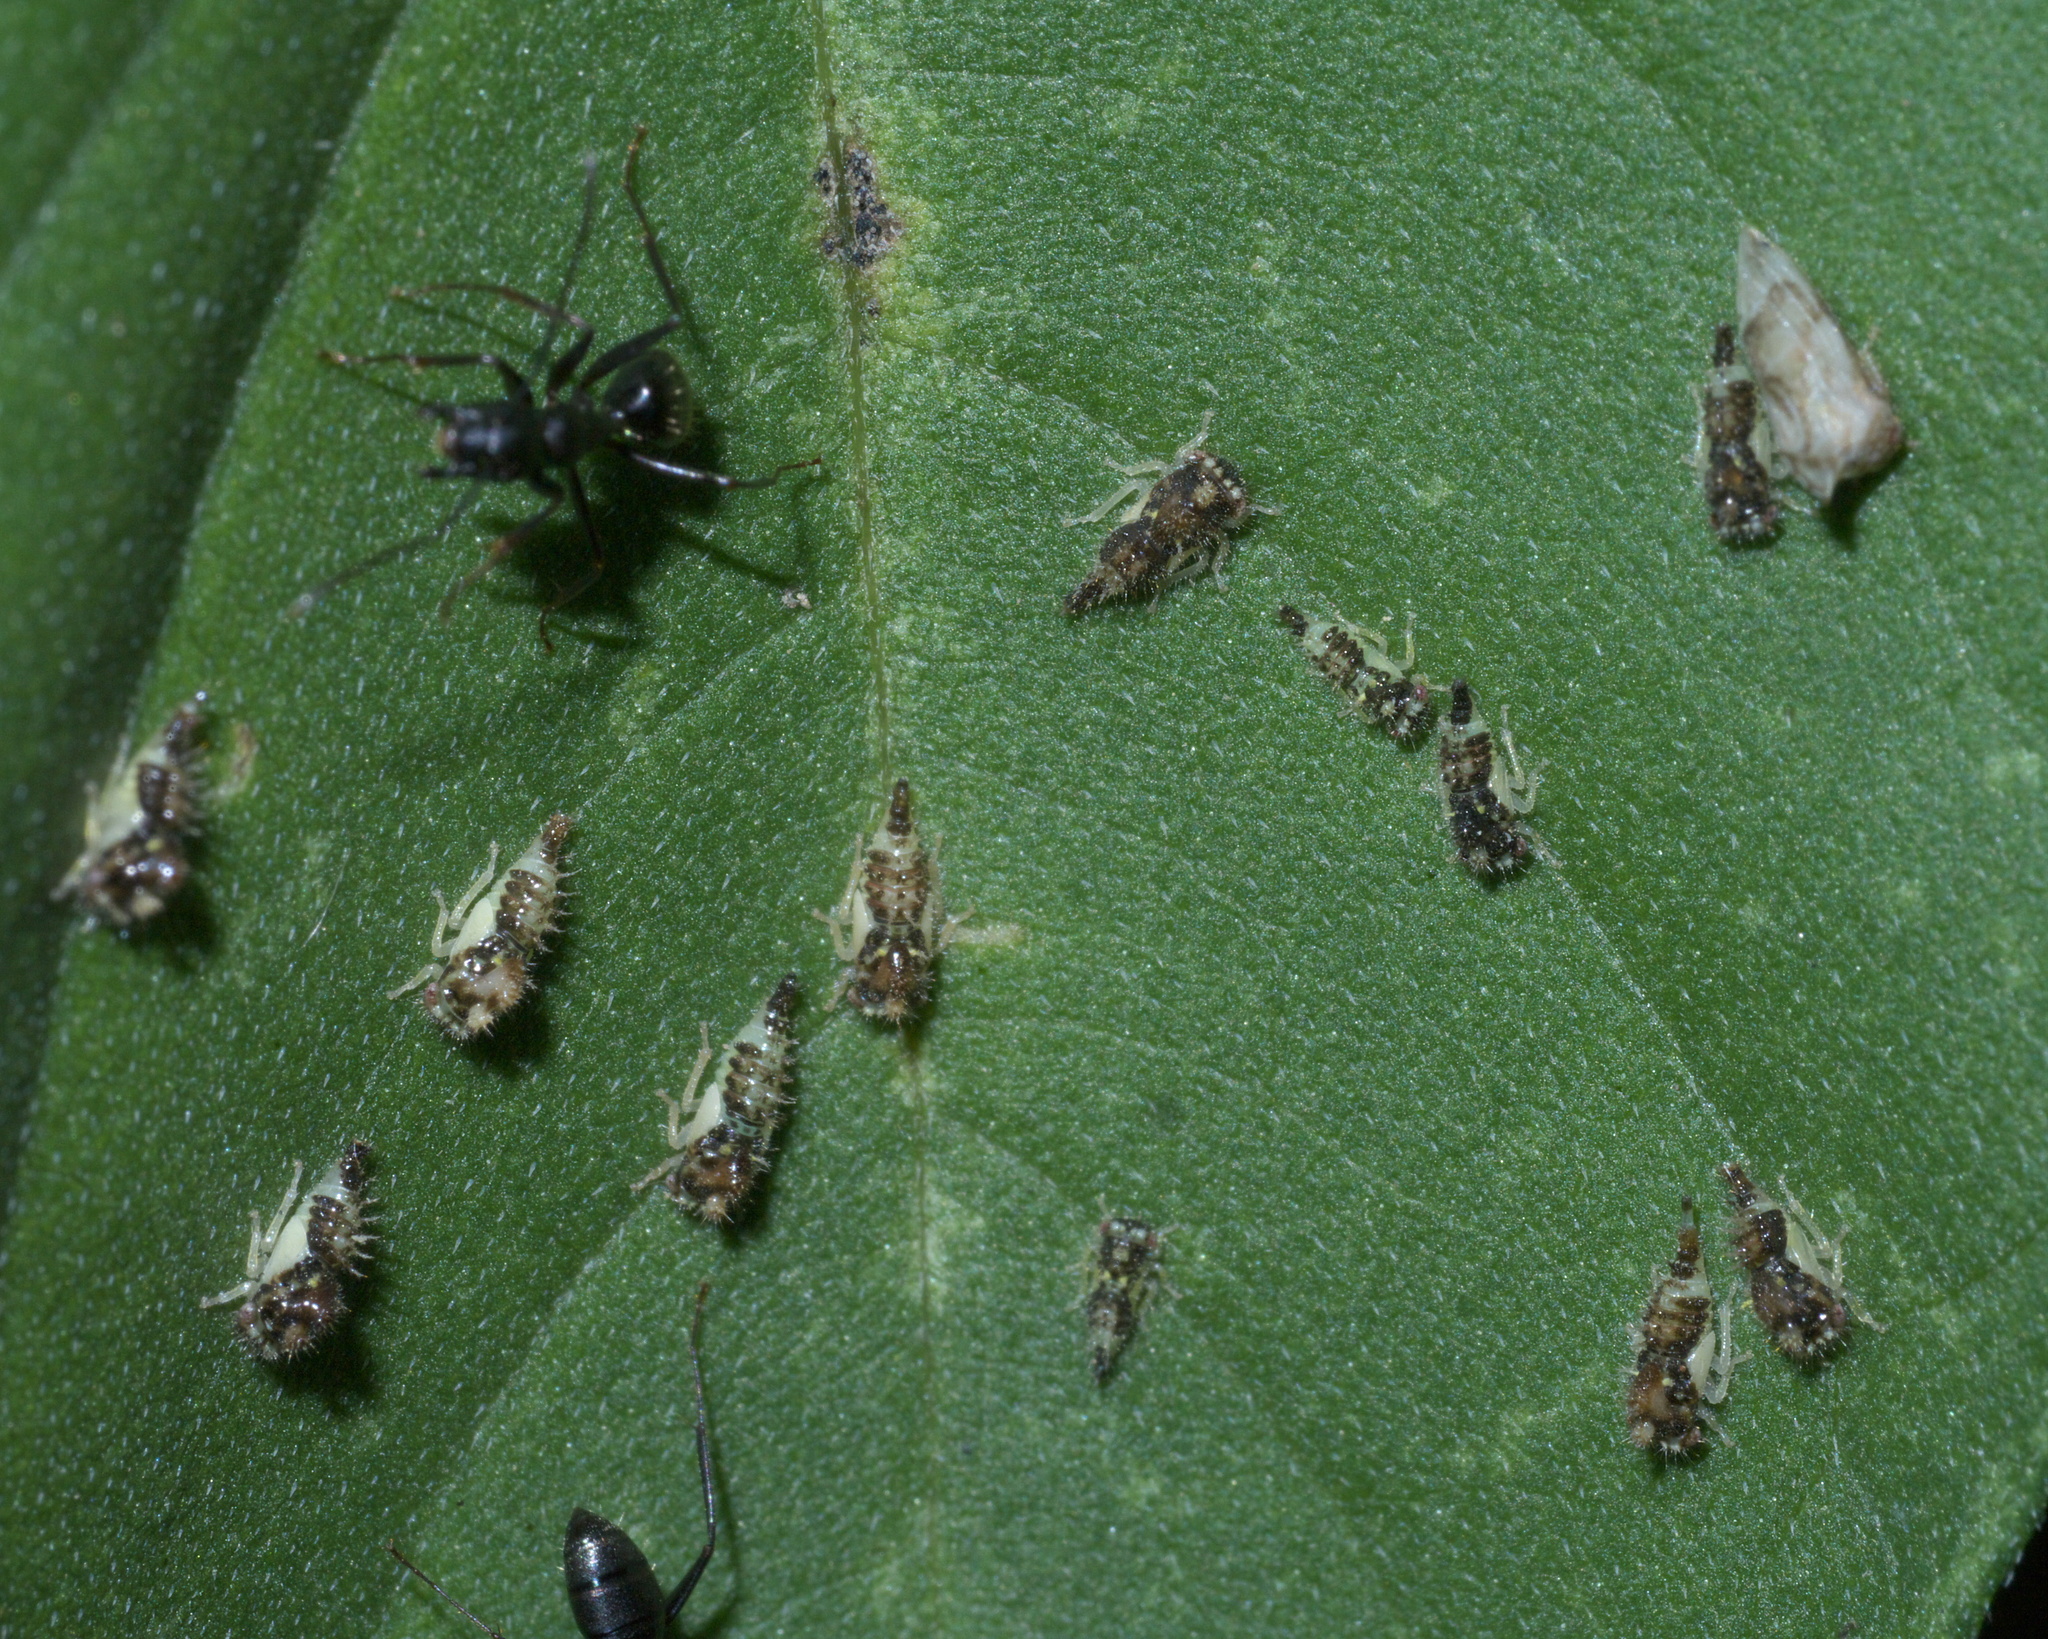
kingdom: Animalia
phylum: Arthropoda
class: Insecta
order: Hemiptera
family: Membracidae
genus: Entylia
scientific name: Entylia carinata
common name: Keeled treehopper
